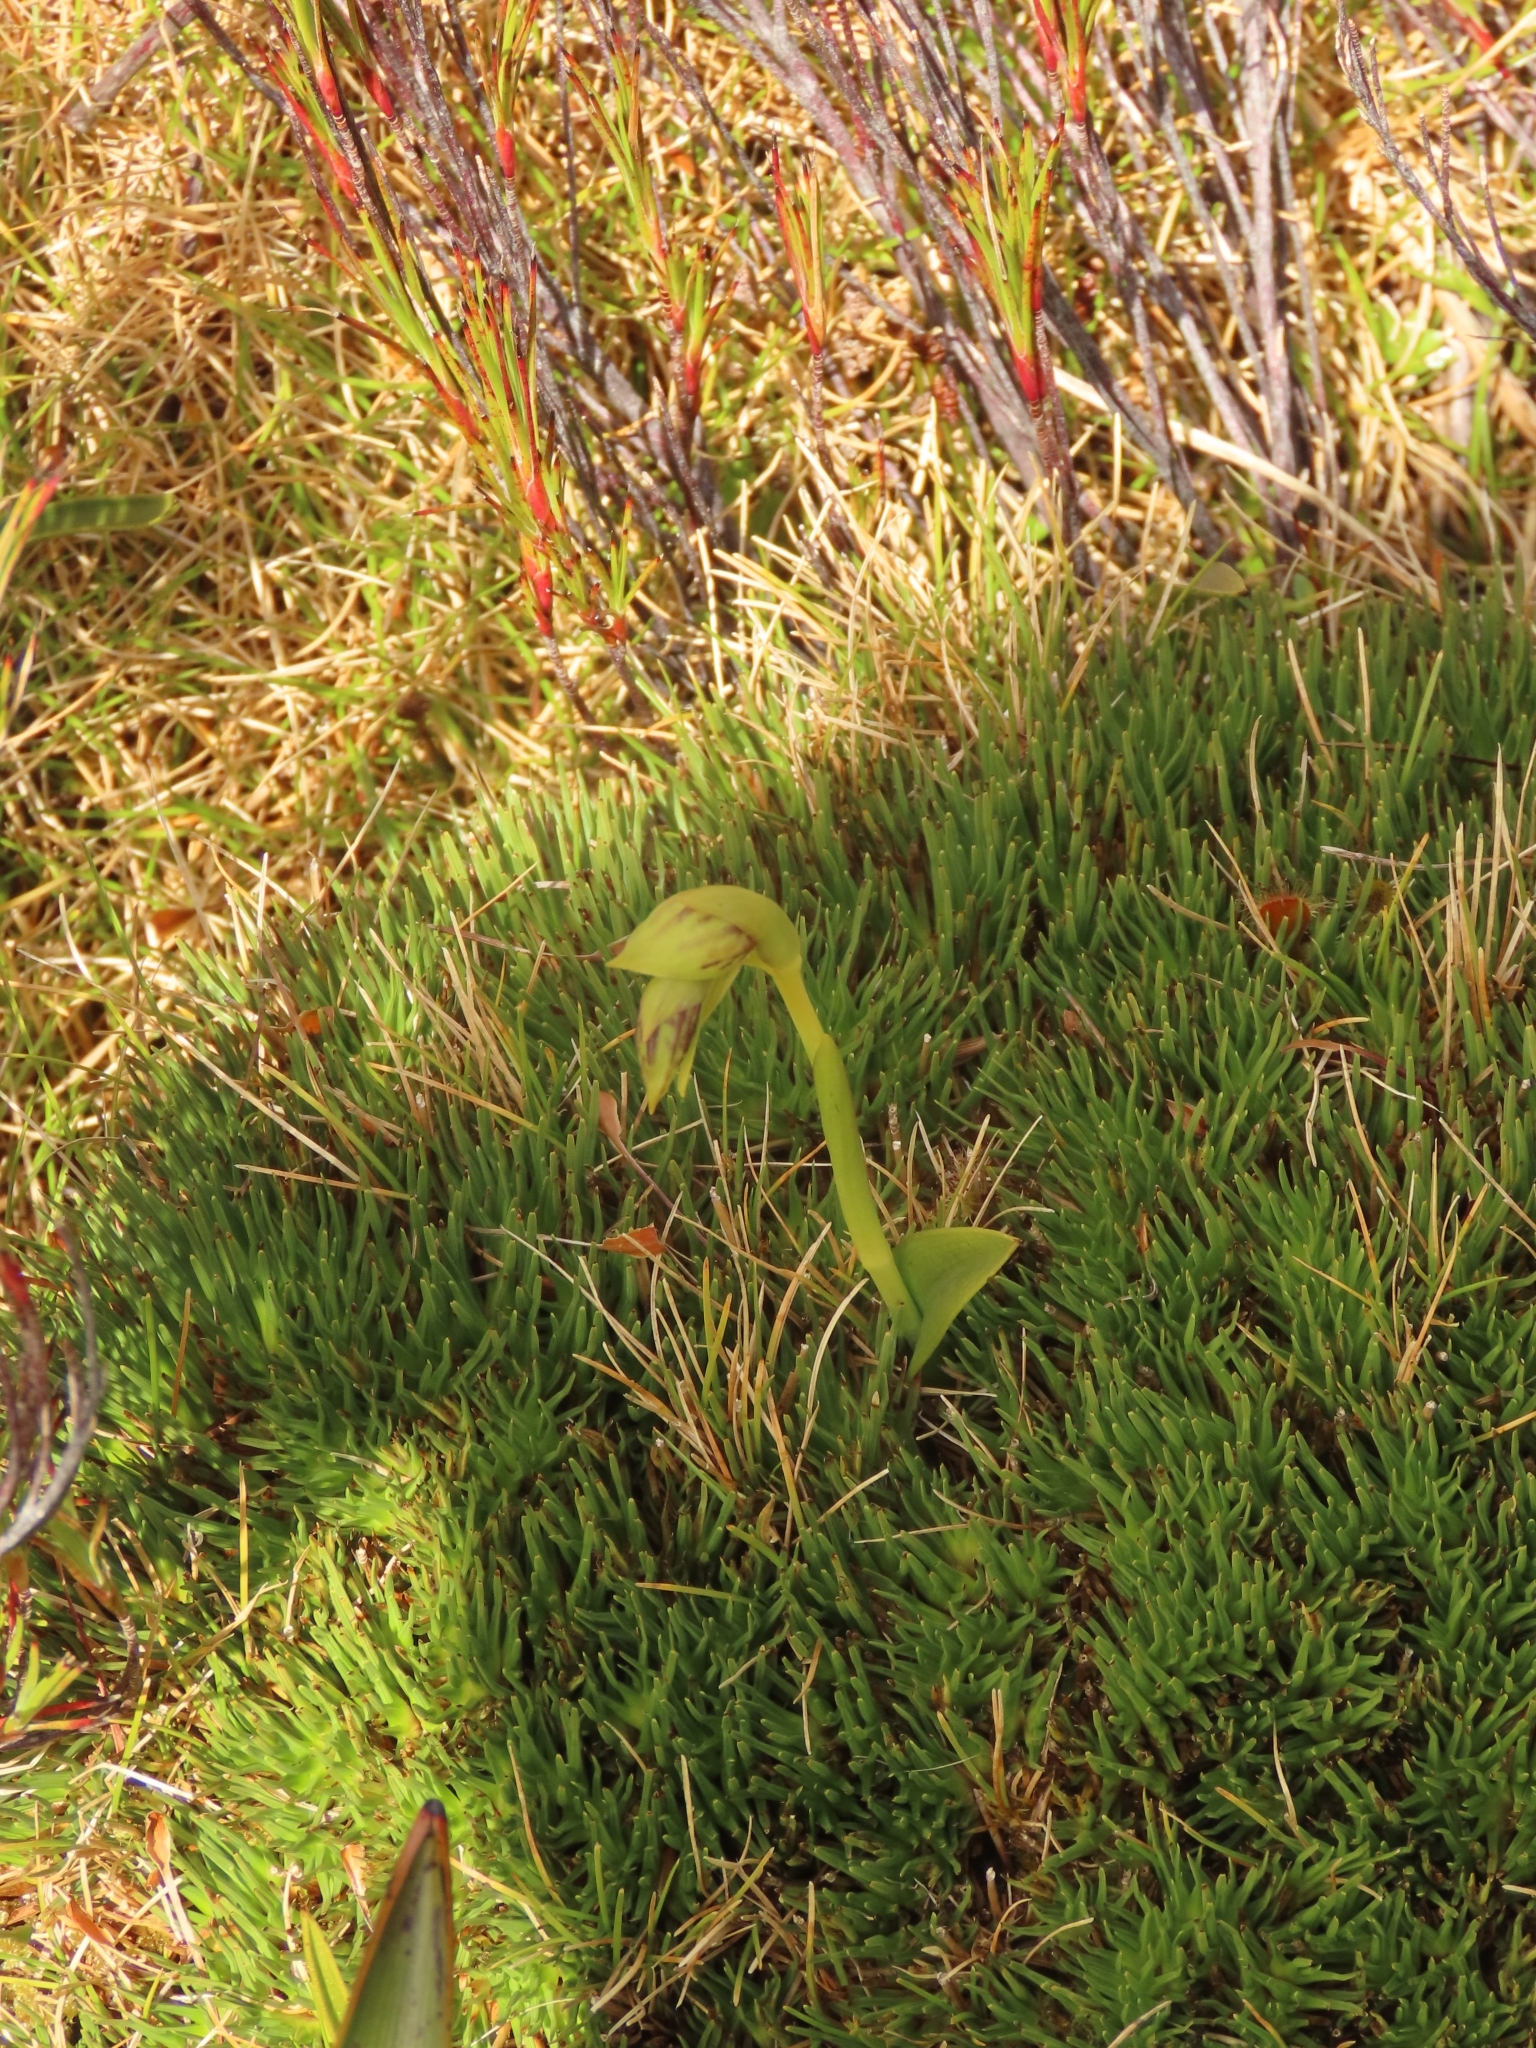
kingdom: Plantae
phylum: Tracheophyta
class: Liliopsida
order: Asparagales
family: Orchidaceae
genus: Waireia
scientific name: Waireia stenopetala
